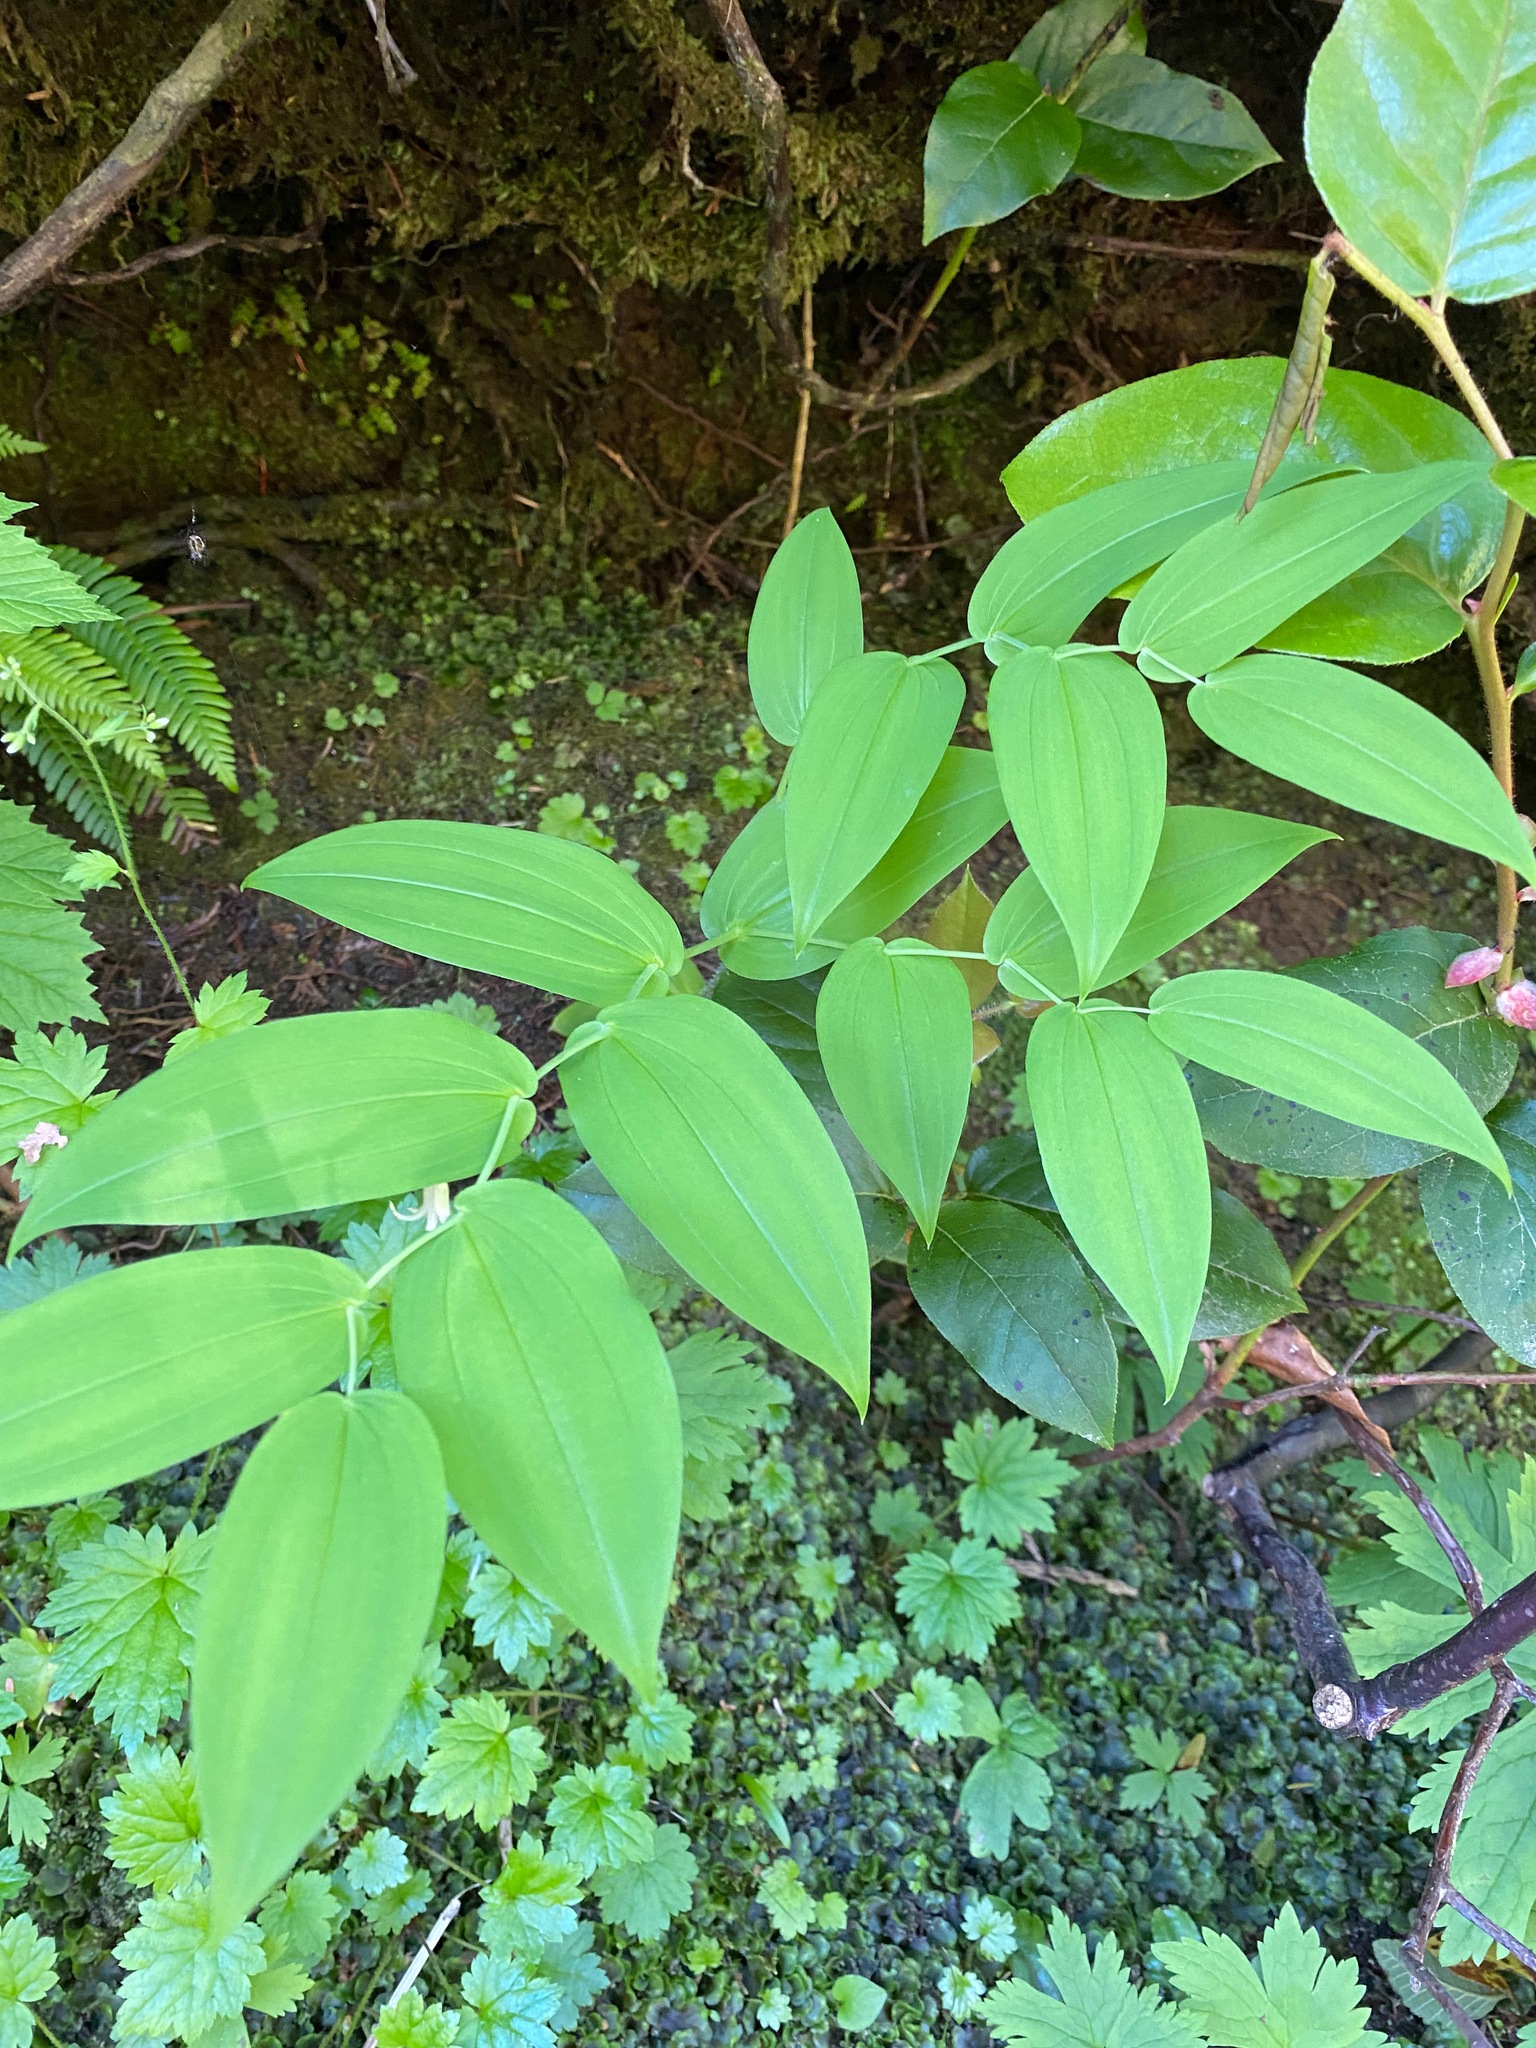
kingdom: Plantae
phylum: Tracheophyta
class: Liliopsida
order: Liliales
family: Liliaceae
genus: Streptopus
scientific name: Streptopus amplexifolius
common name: Clasp twisted stalk
